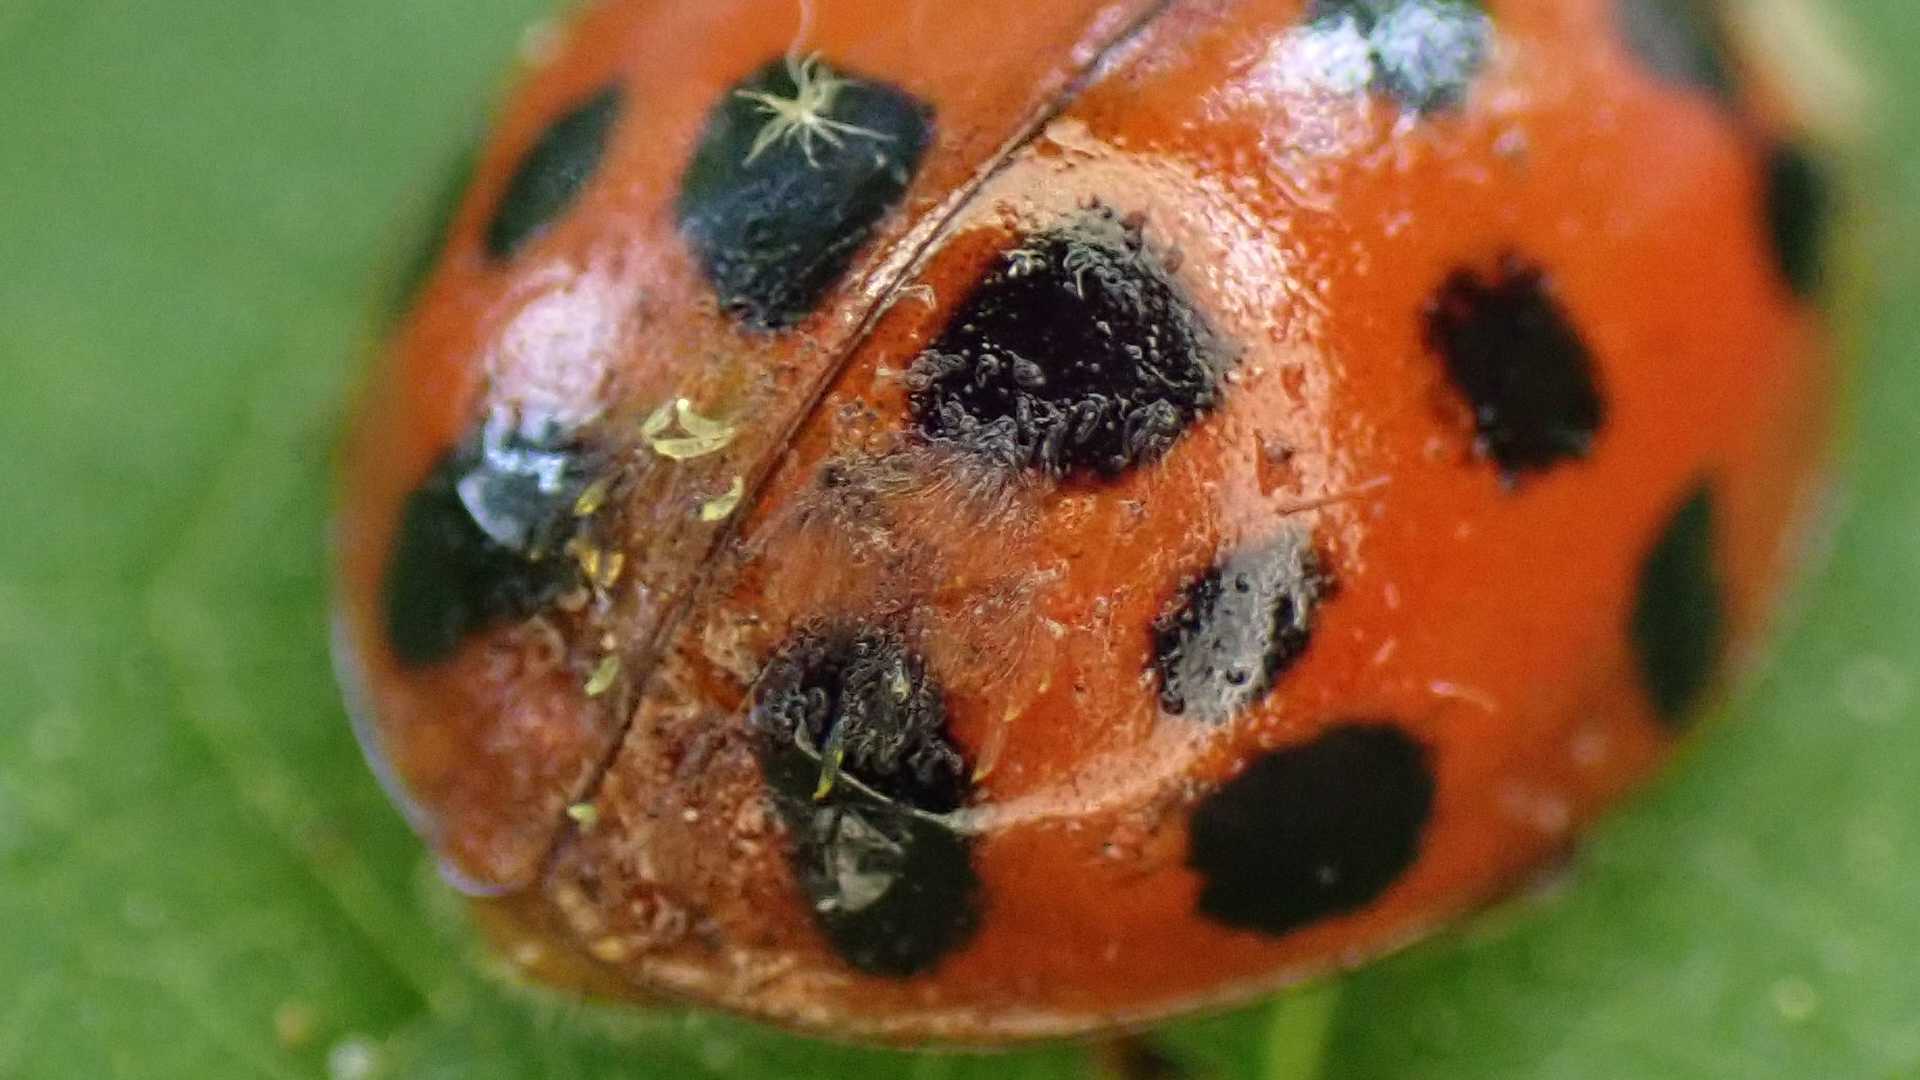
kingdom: Fungi
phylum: Ascomycota
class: Laboulbeniomycetes
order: Laboulbeniales
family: Laboulbeniaceae
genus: Hesperomyces
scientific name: Hesperomyces harmoniae
